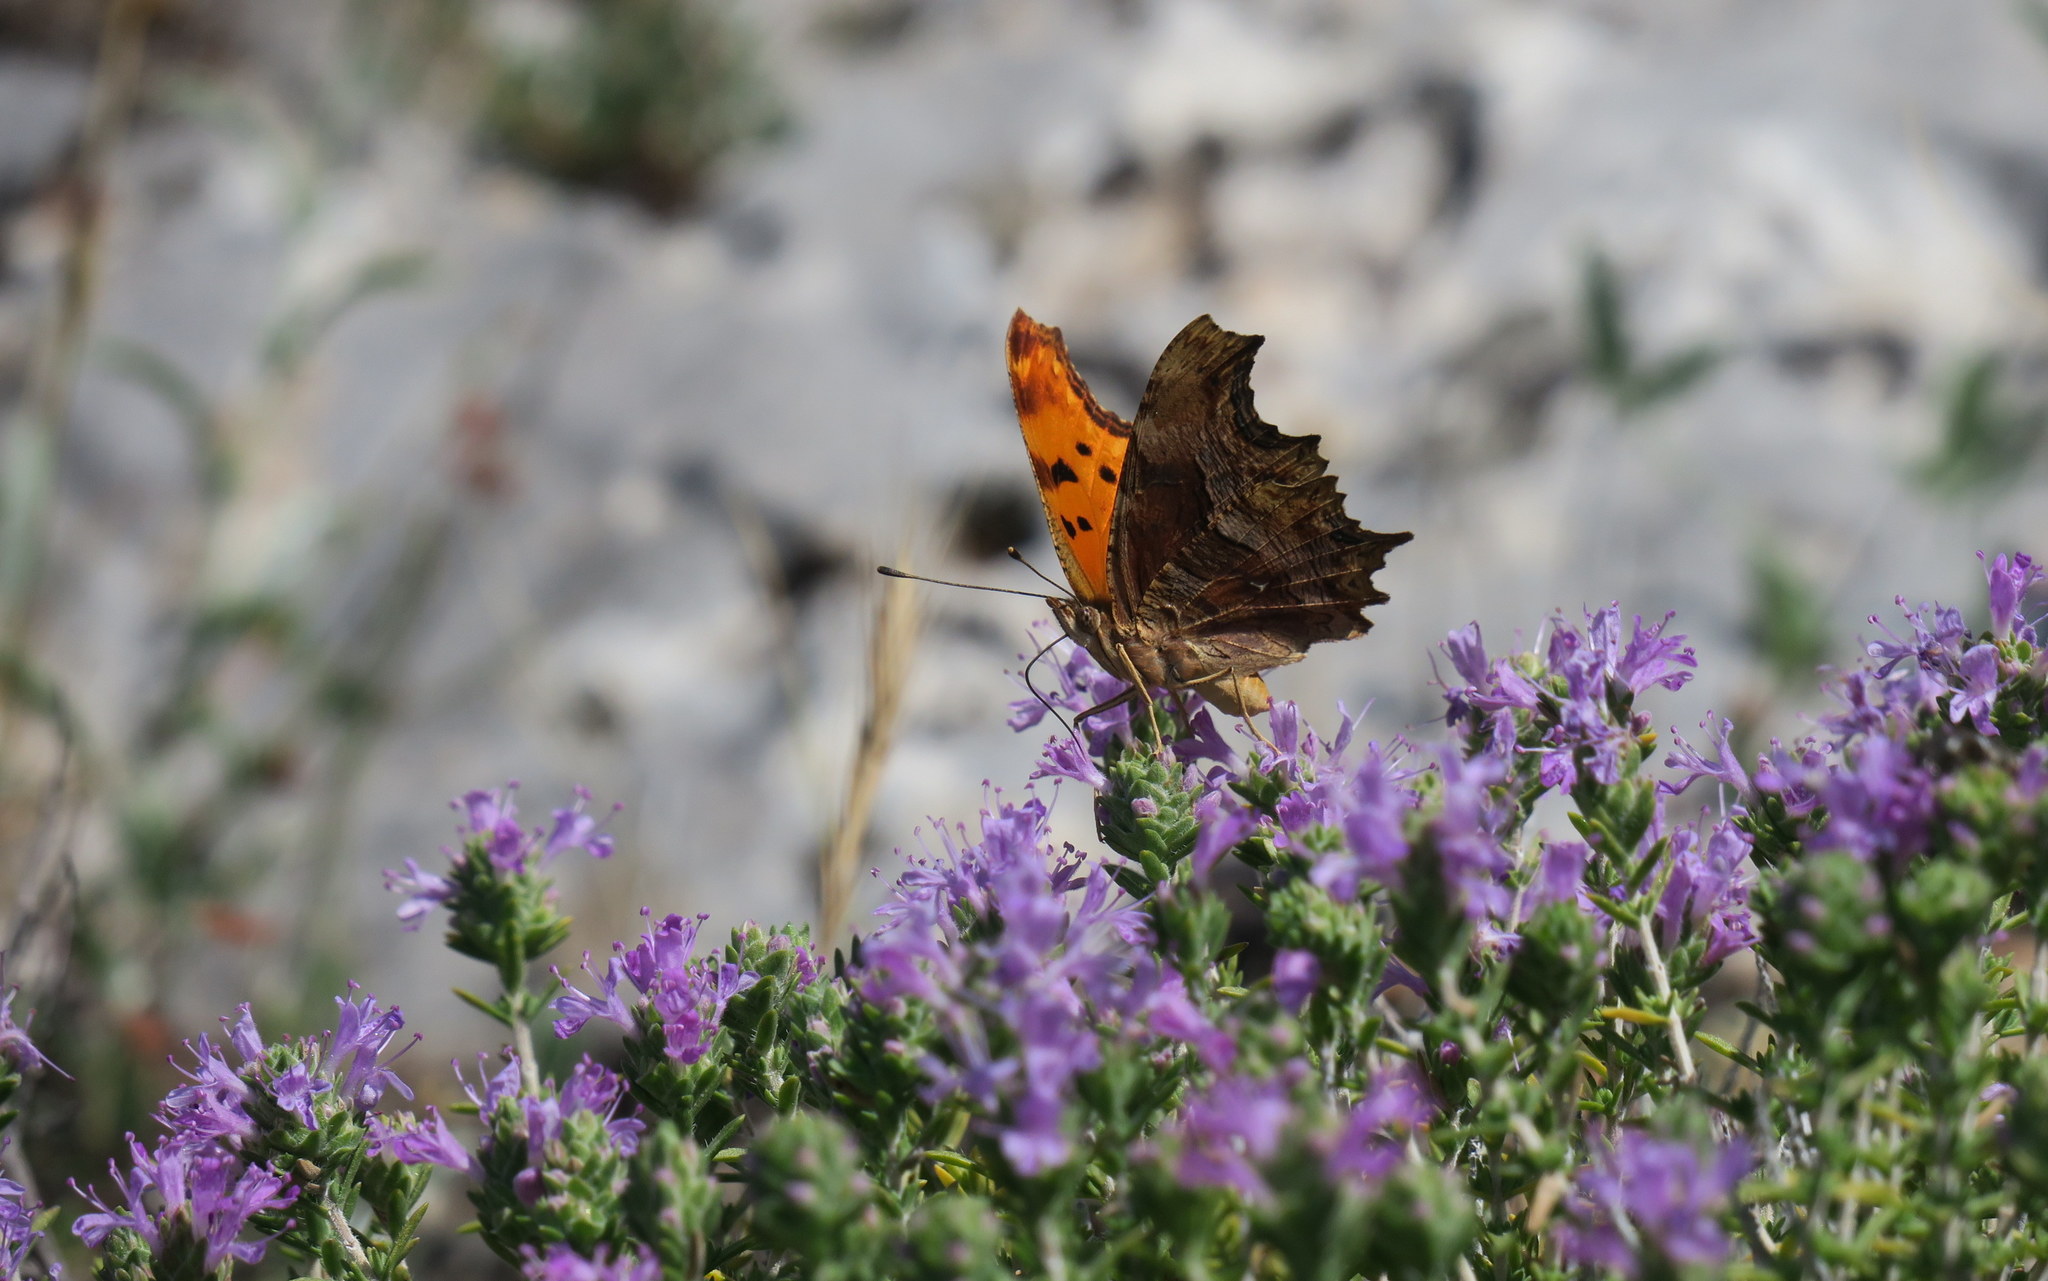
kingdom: Animalia
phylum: Arthropoda
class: Insecta
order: Lepidoptera
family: Nymphalidae
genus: Polygonia
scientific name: Polygonia egea
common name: Southern comma
